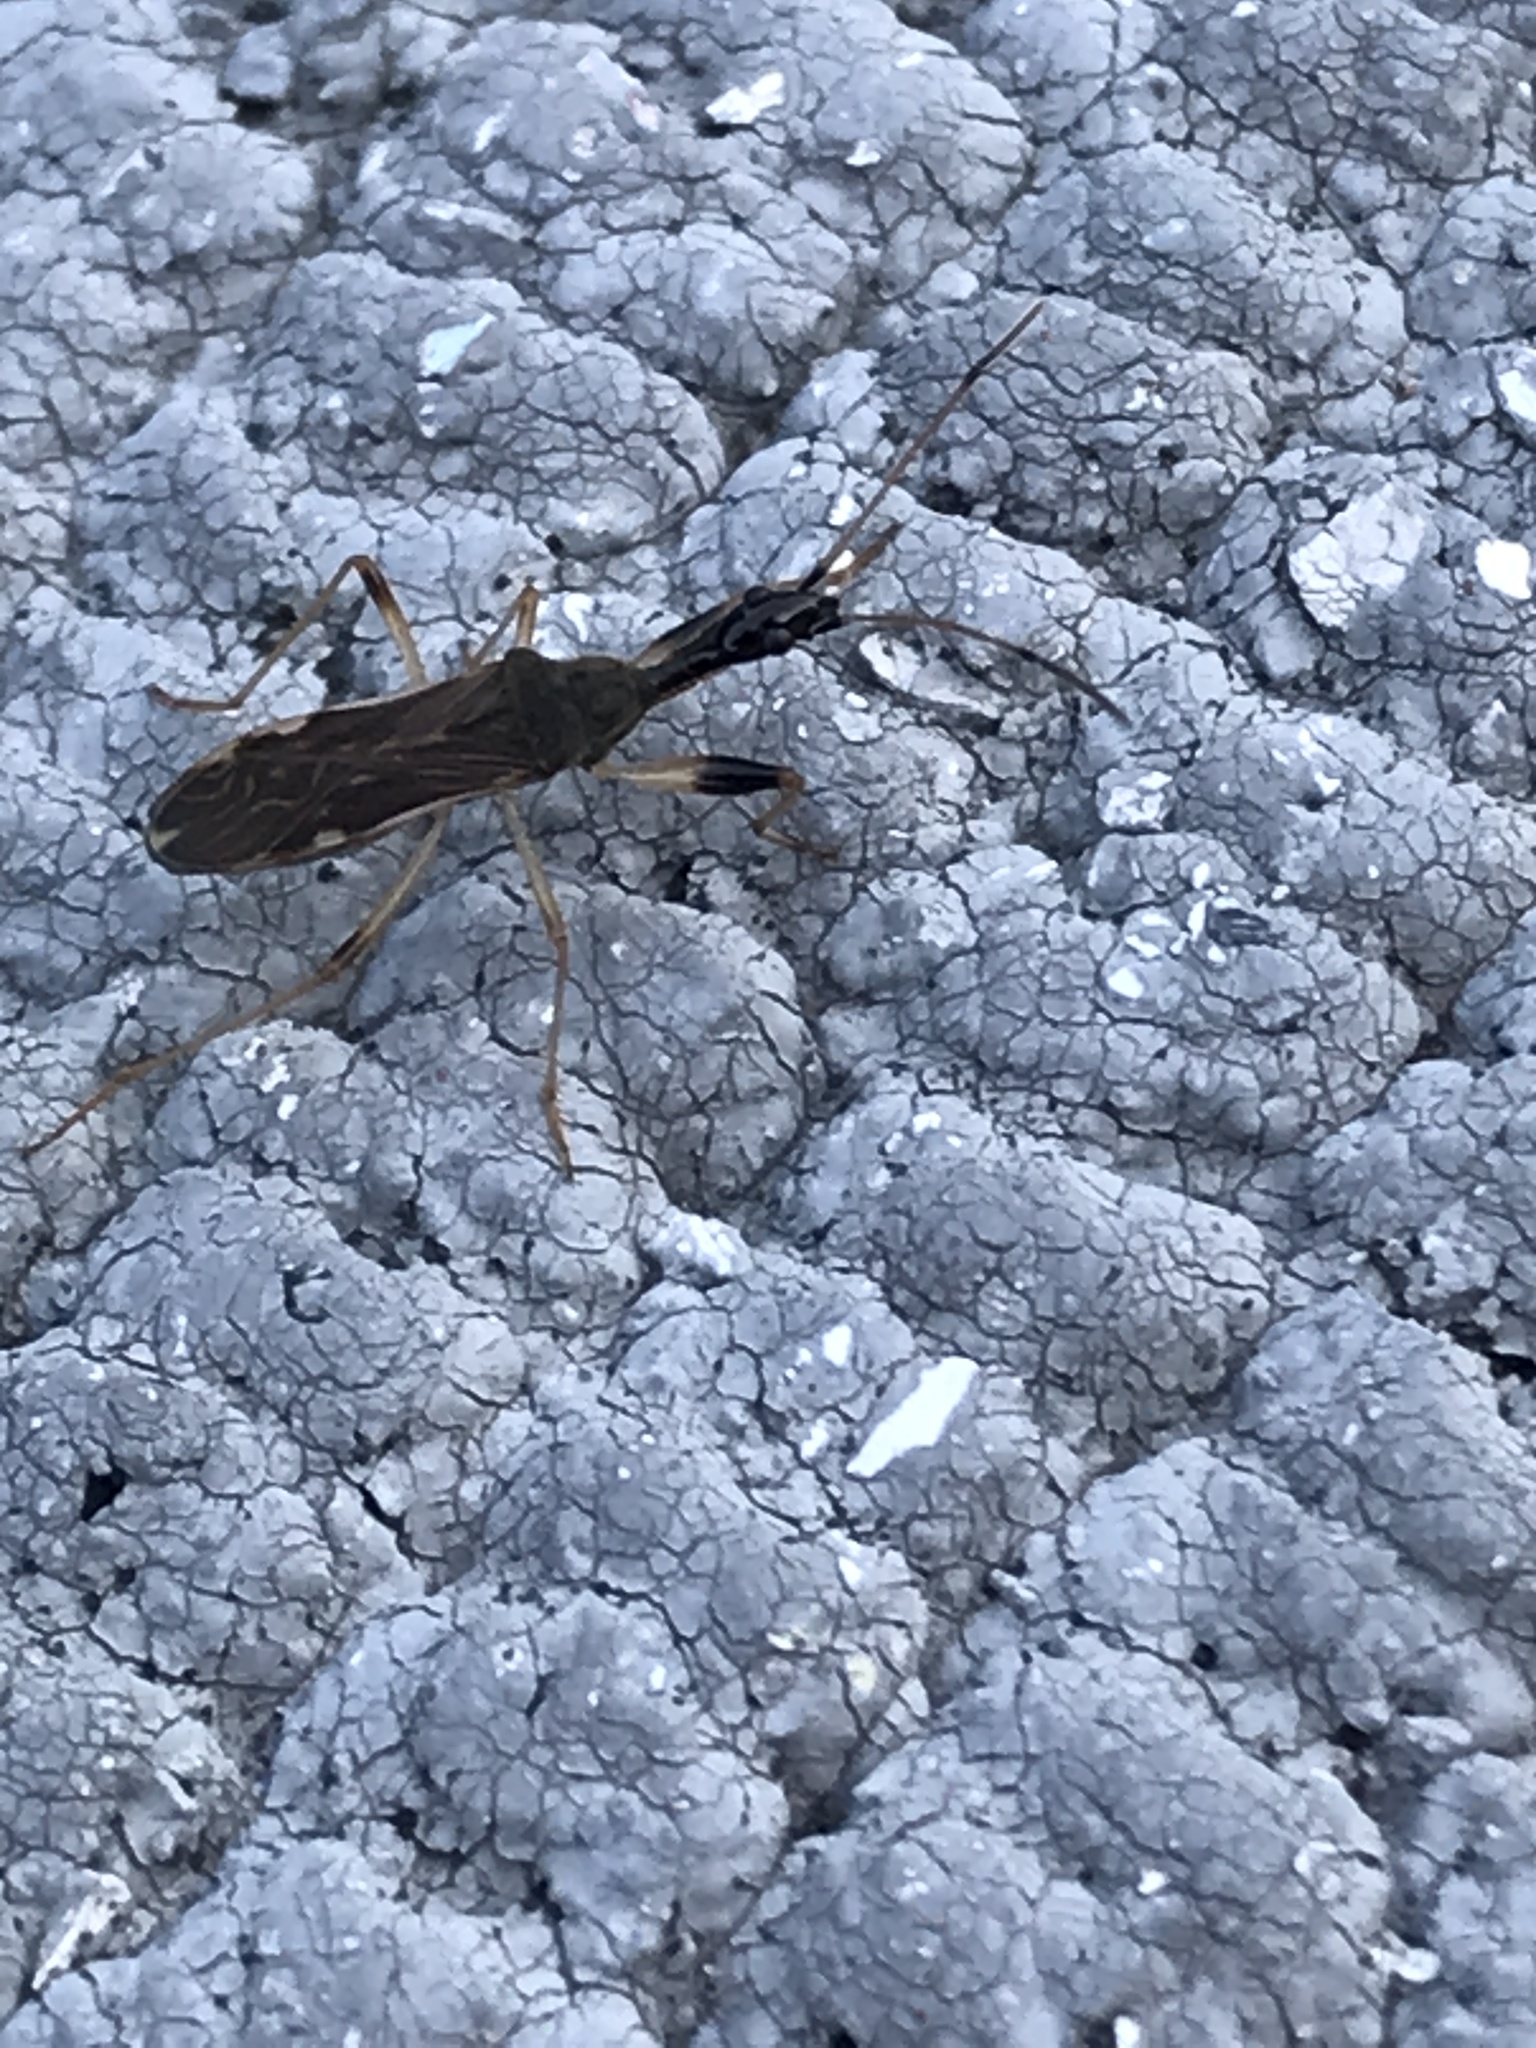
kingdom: Animalia
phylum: Arthropoda
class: Insecta
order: Hemiptera
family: Rhyparochromidae
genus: Myodocha
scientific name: Myodocha serripes
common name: Long-necked seed bug
